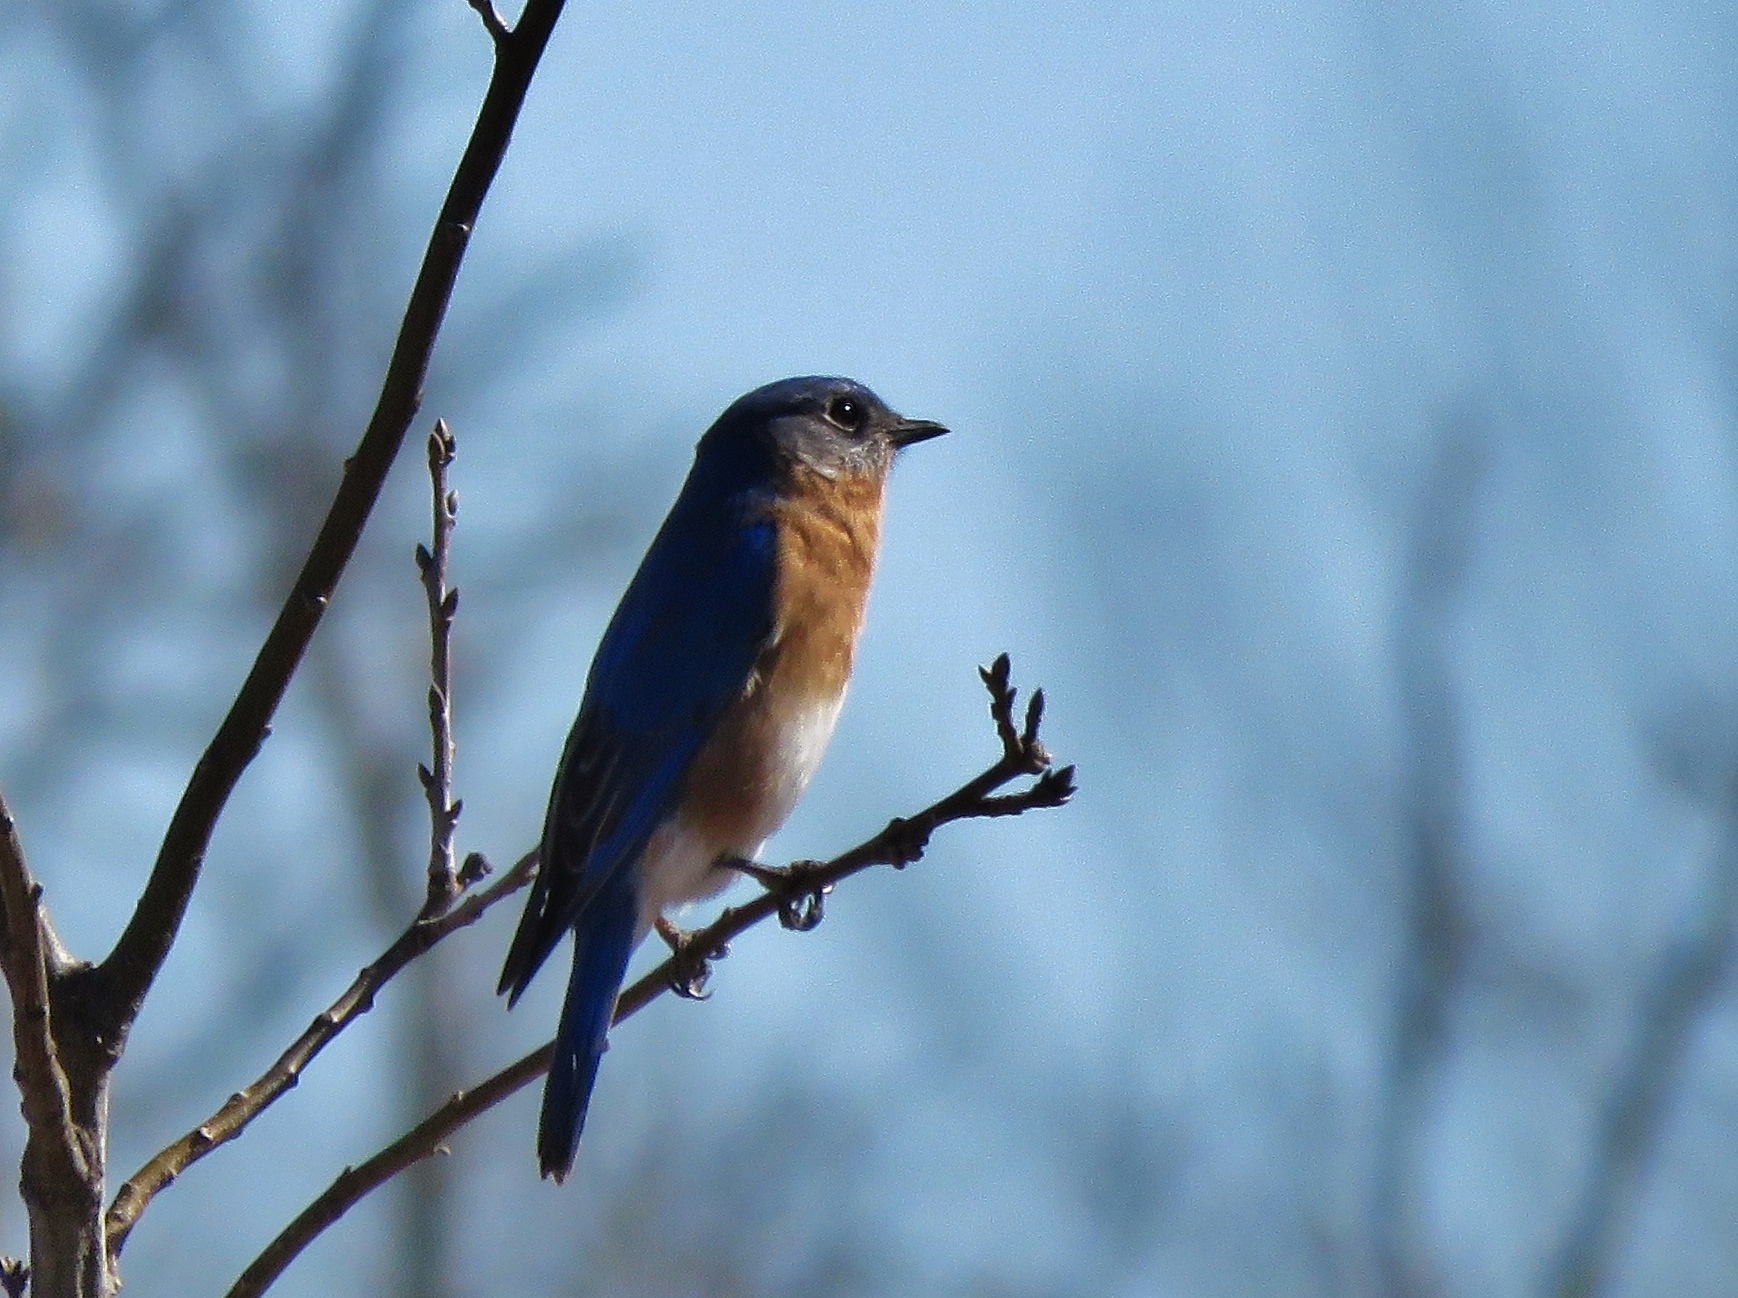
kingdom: Animalia
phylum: Chordata
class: Aves
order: Passeriformes
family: Turdidae
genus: Sialia
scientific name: Sialia sialis
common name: Eastern bluebird
